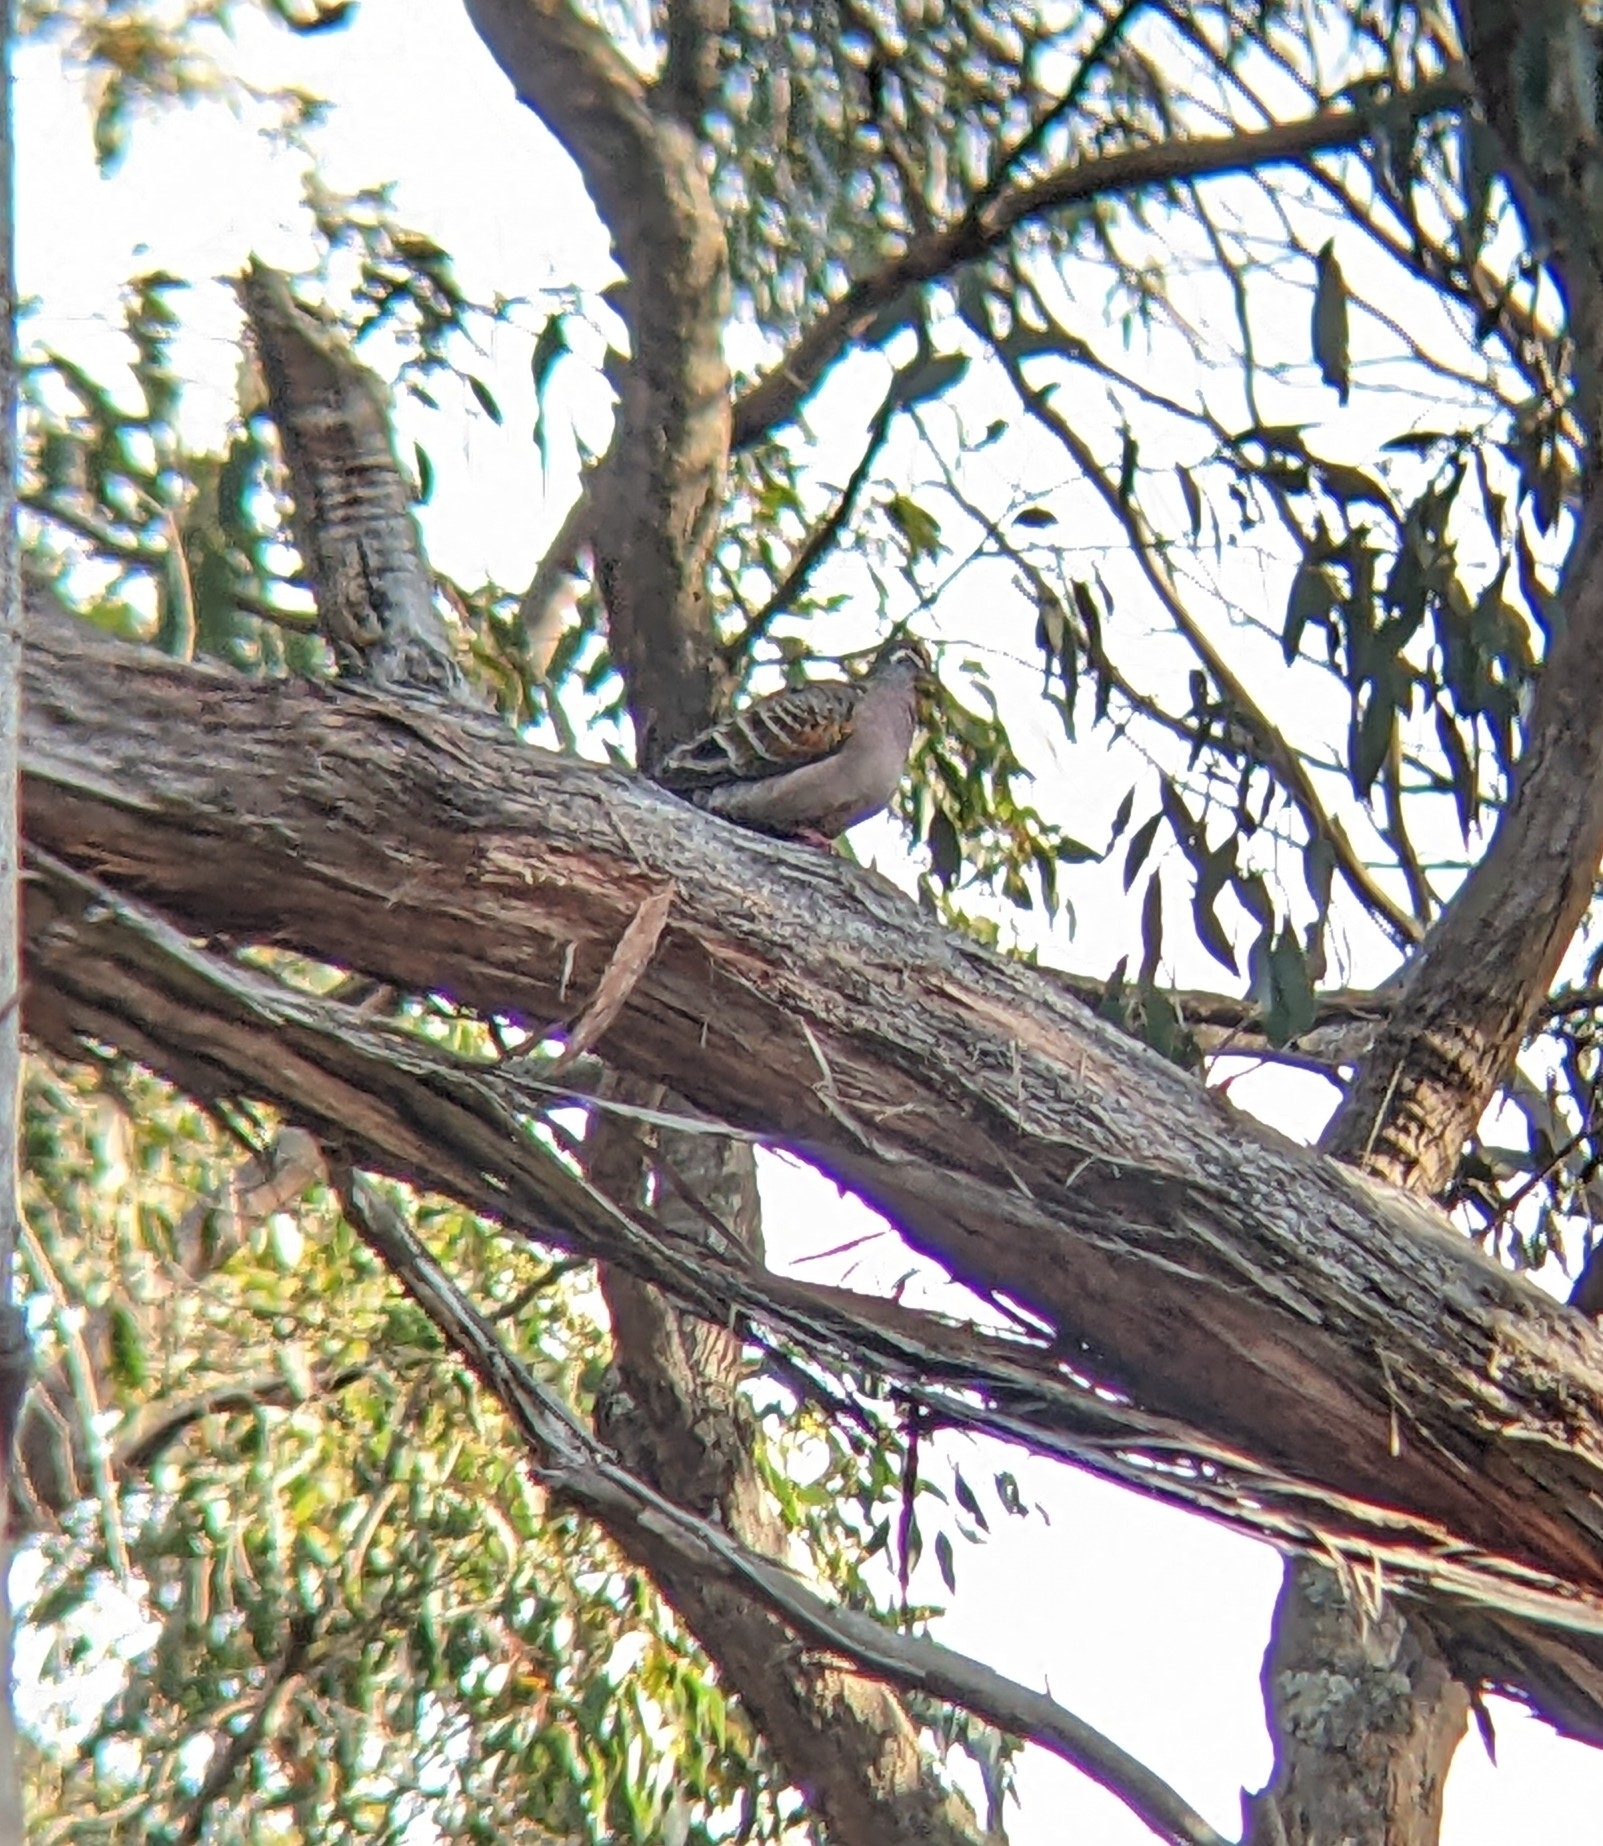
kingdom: Animalia
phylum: Chordata
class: Aves
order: Columbiformes
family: Columbidae
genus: Phaps
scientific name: Phaps chalcoptera
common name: Common bronzewing
